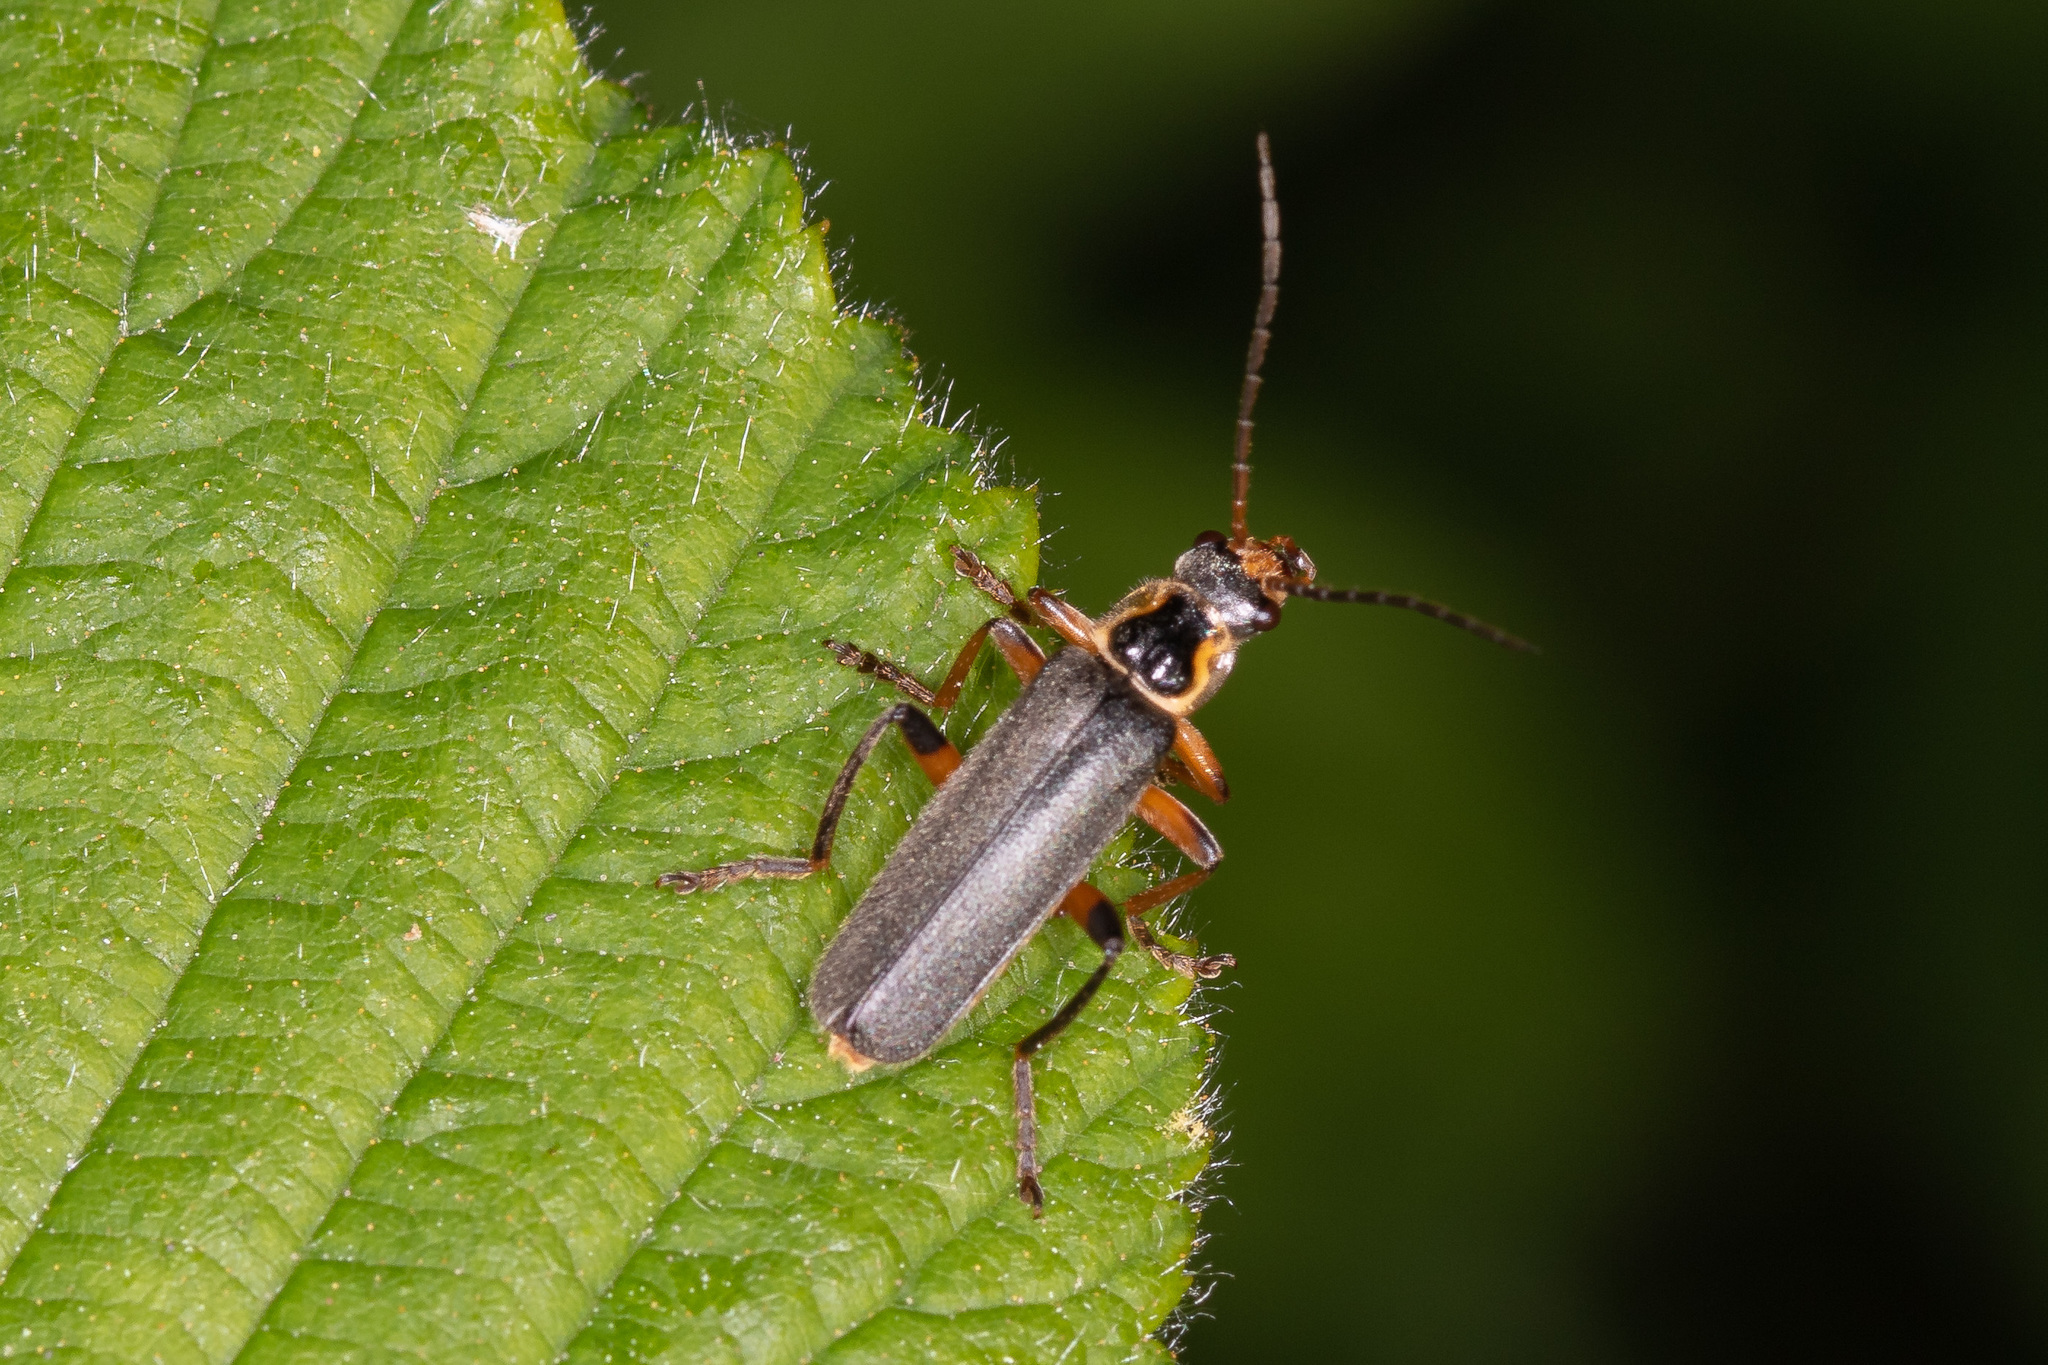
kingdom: Animalia
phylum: Arthropoda
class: Insecta
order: Coleoptera
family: Cantharidae
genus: Cantharis
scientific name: Cantharis nigricans
